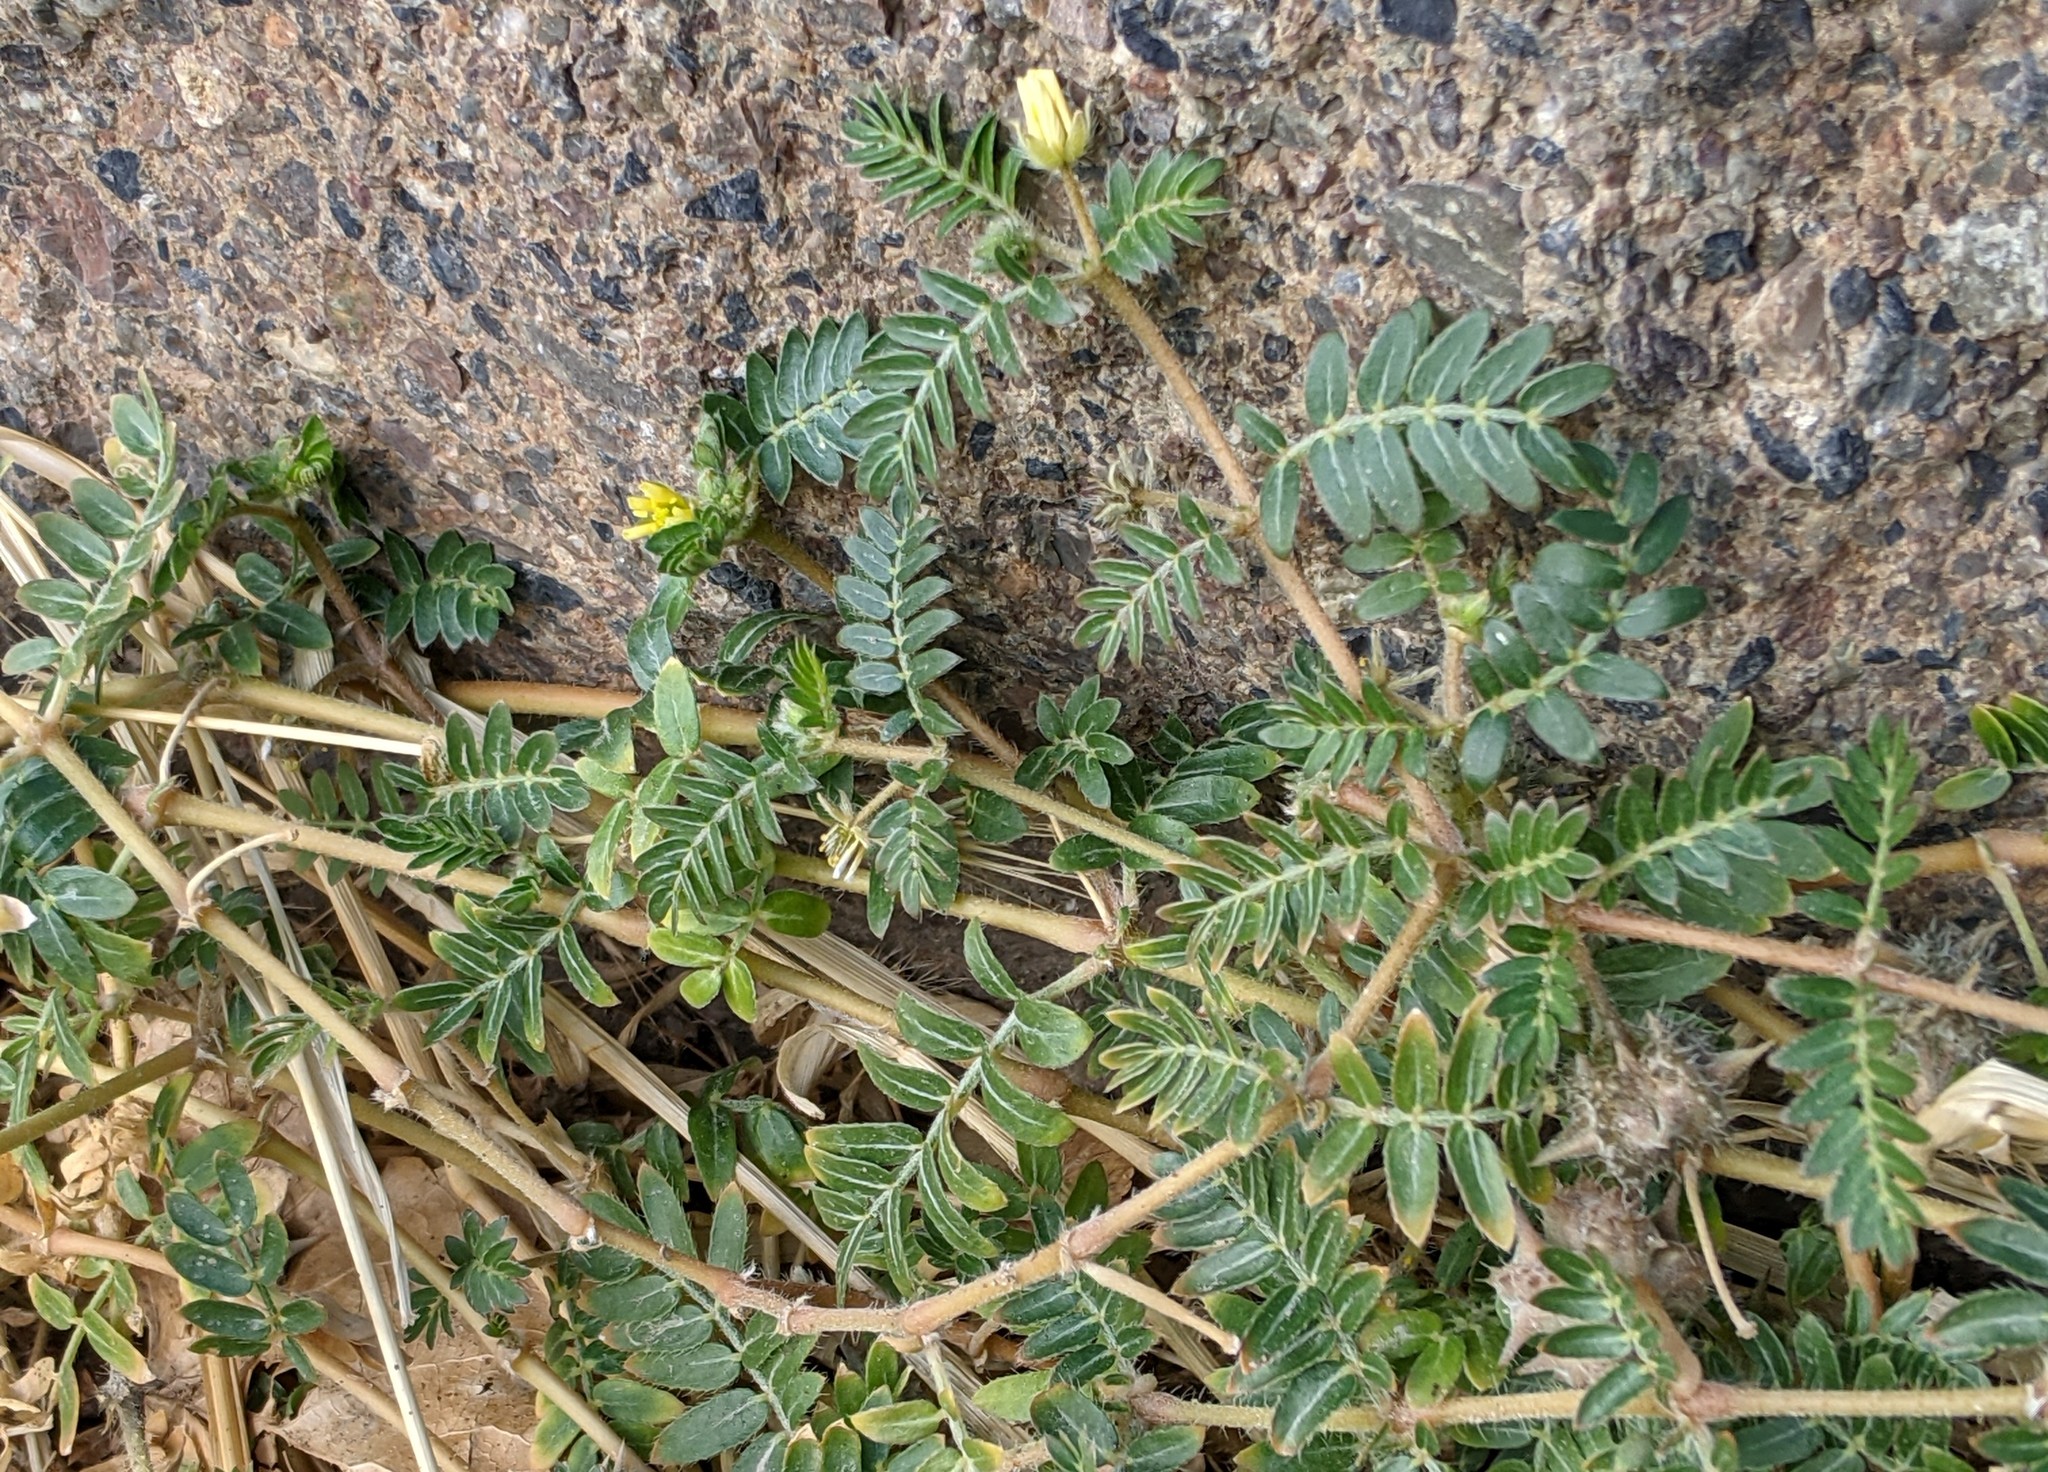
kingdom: Plantae
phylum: Tracheophyta
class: Magnoliopsida
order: Zygophyllales
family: Zygophyllaceae
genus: Tribulus
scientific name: Tribulus terrestris
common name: Puncturevine
